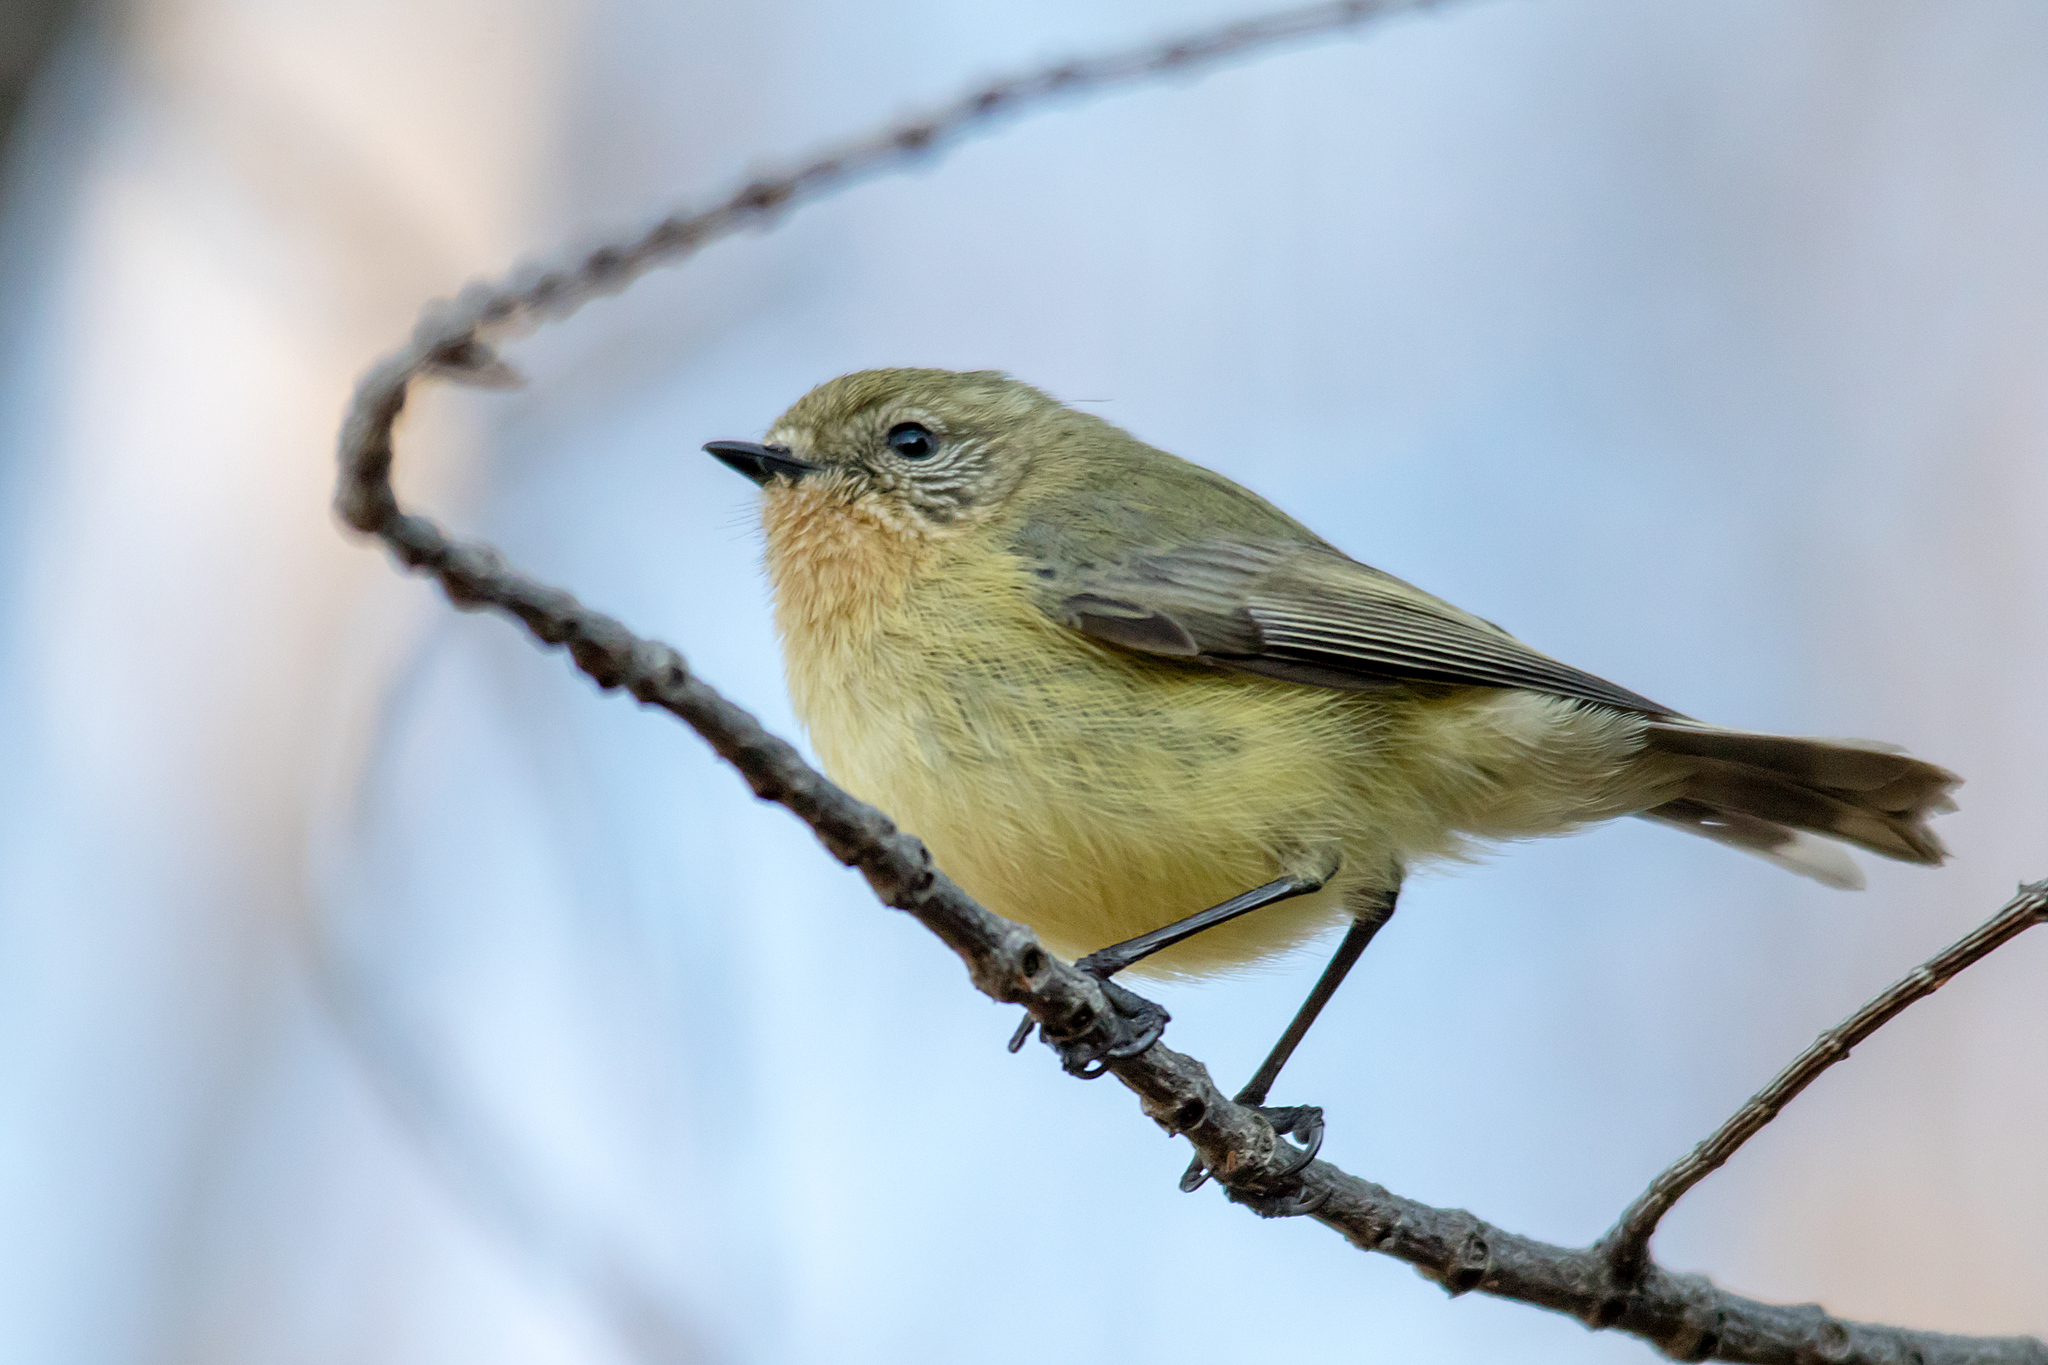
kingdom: Animalia
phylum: Chordata
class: Aves
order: Passeriformes
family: Acanthizidae
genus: Acanthiza
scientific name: Acanthiza nana
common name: Yellow thornbill
